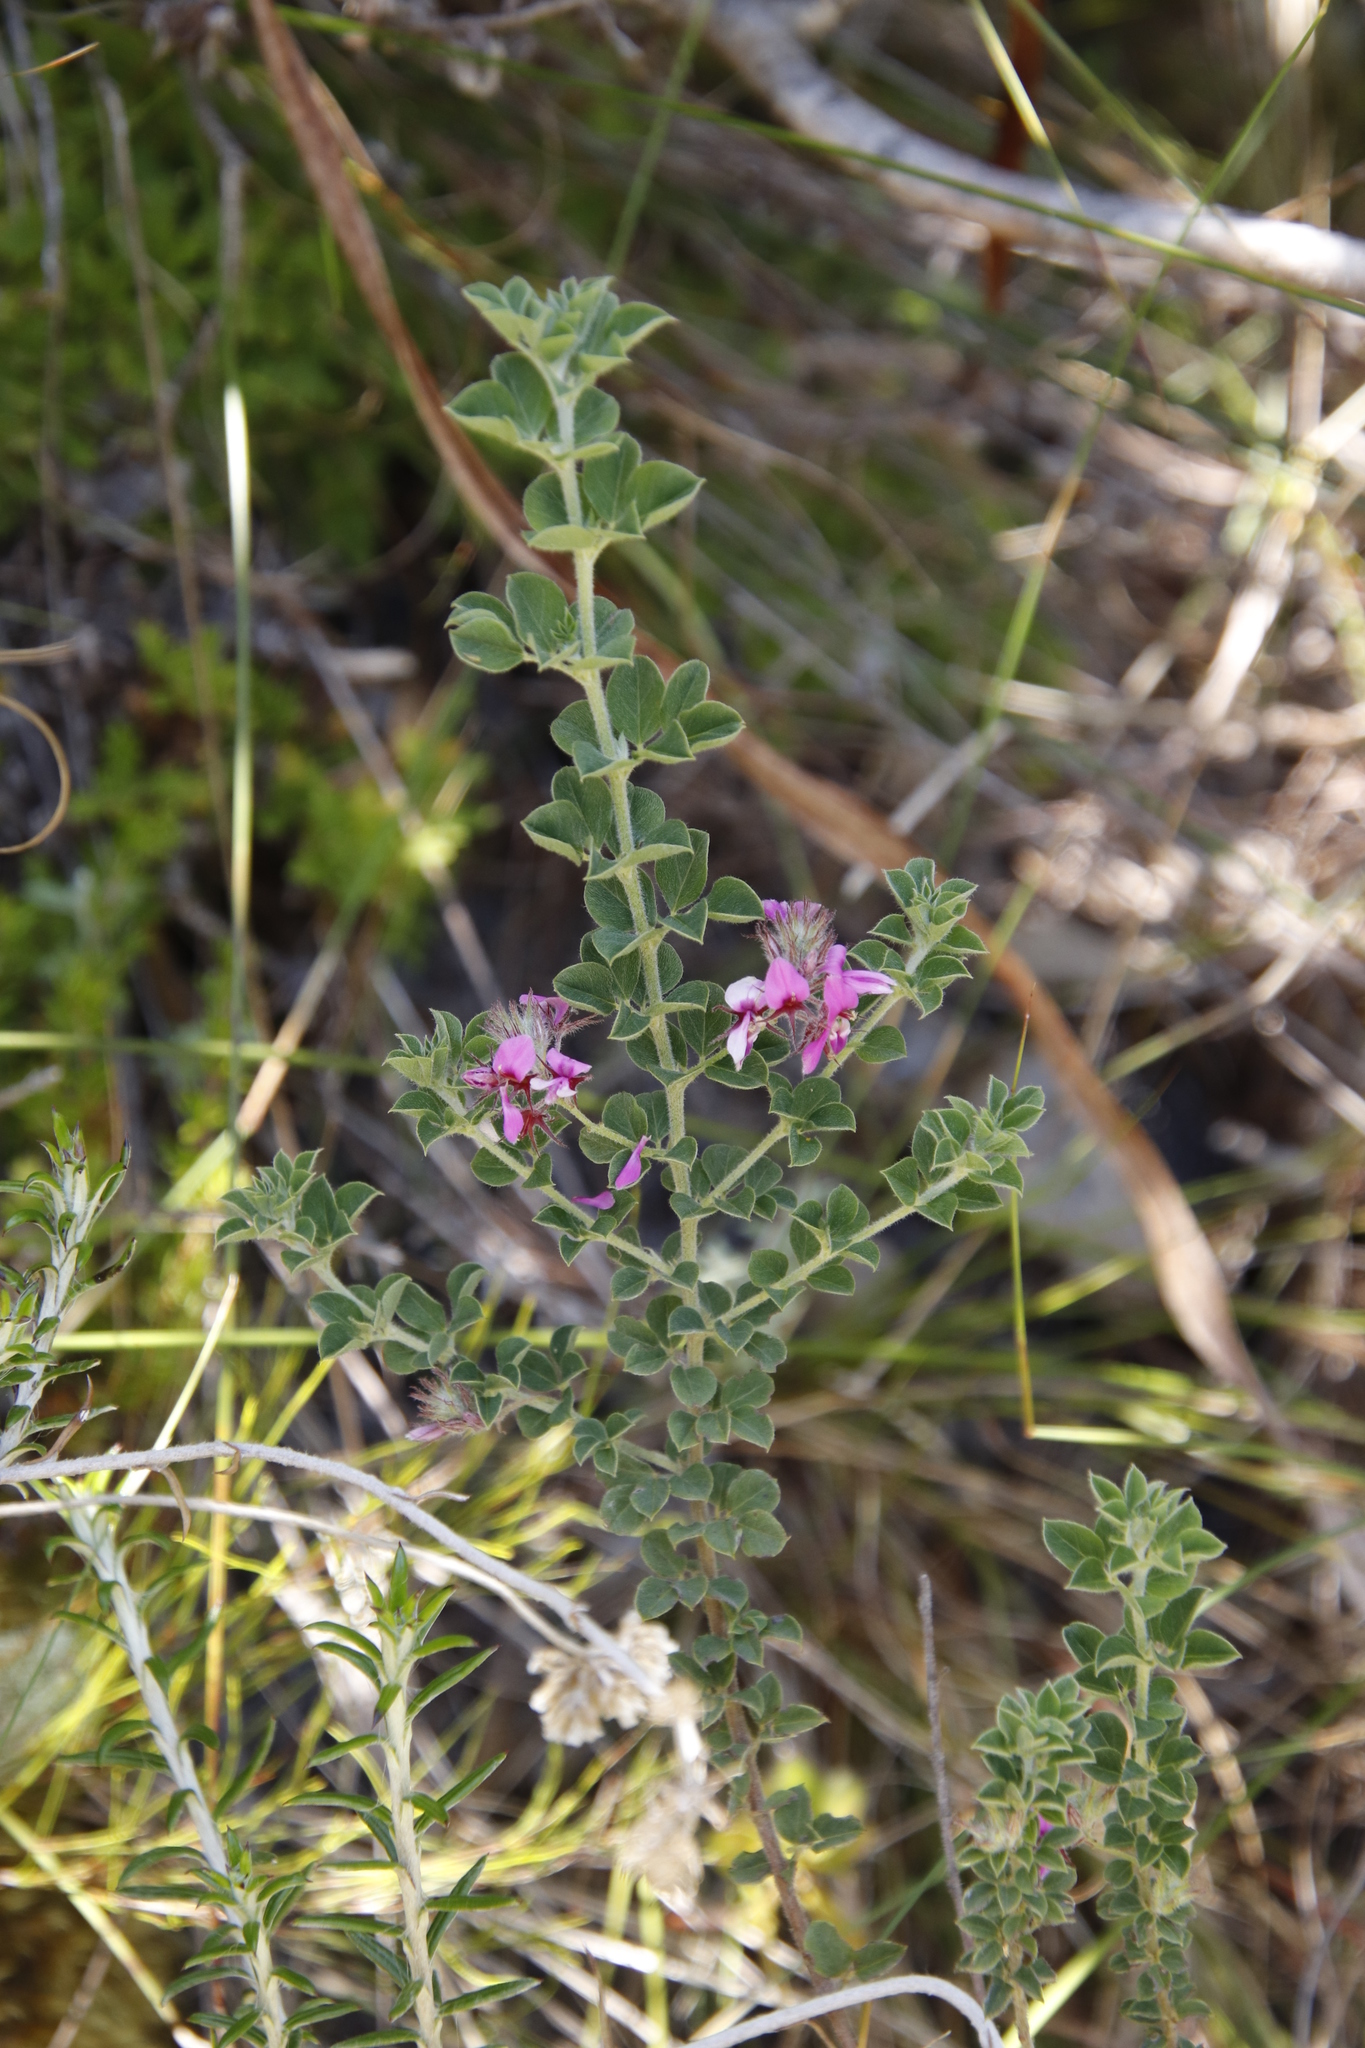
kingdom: Plantae
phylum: Tracheophyta
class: Magnoliopsida
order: Fabales
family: Fabaceae
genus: Indigofera
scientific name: Indigofera candolleana
